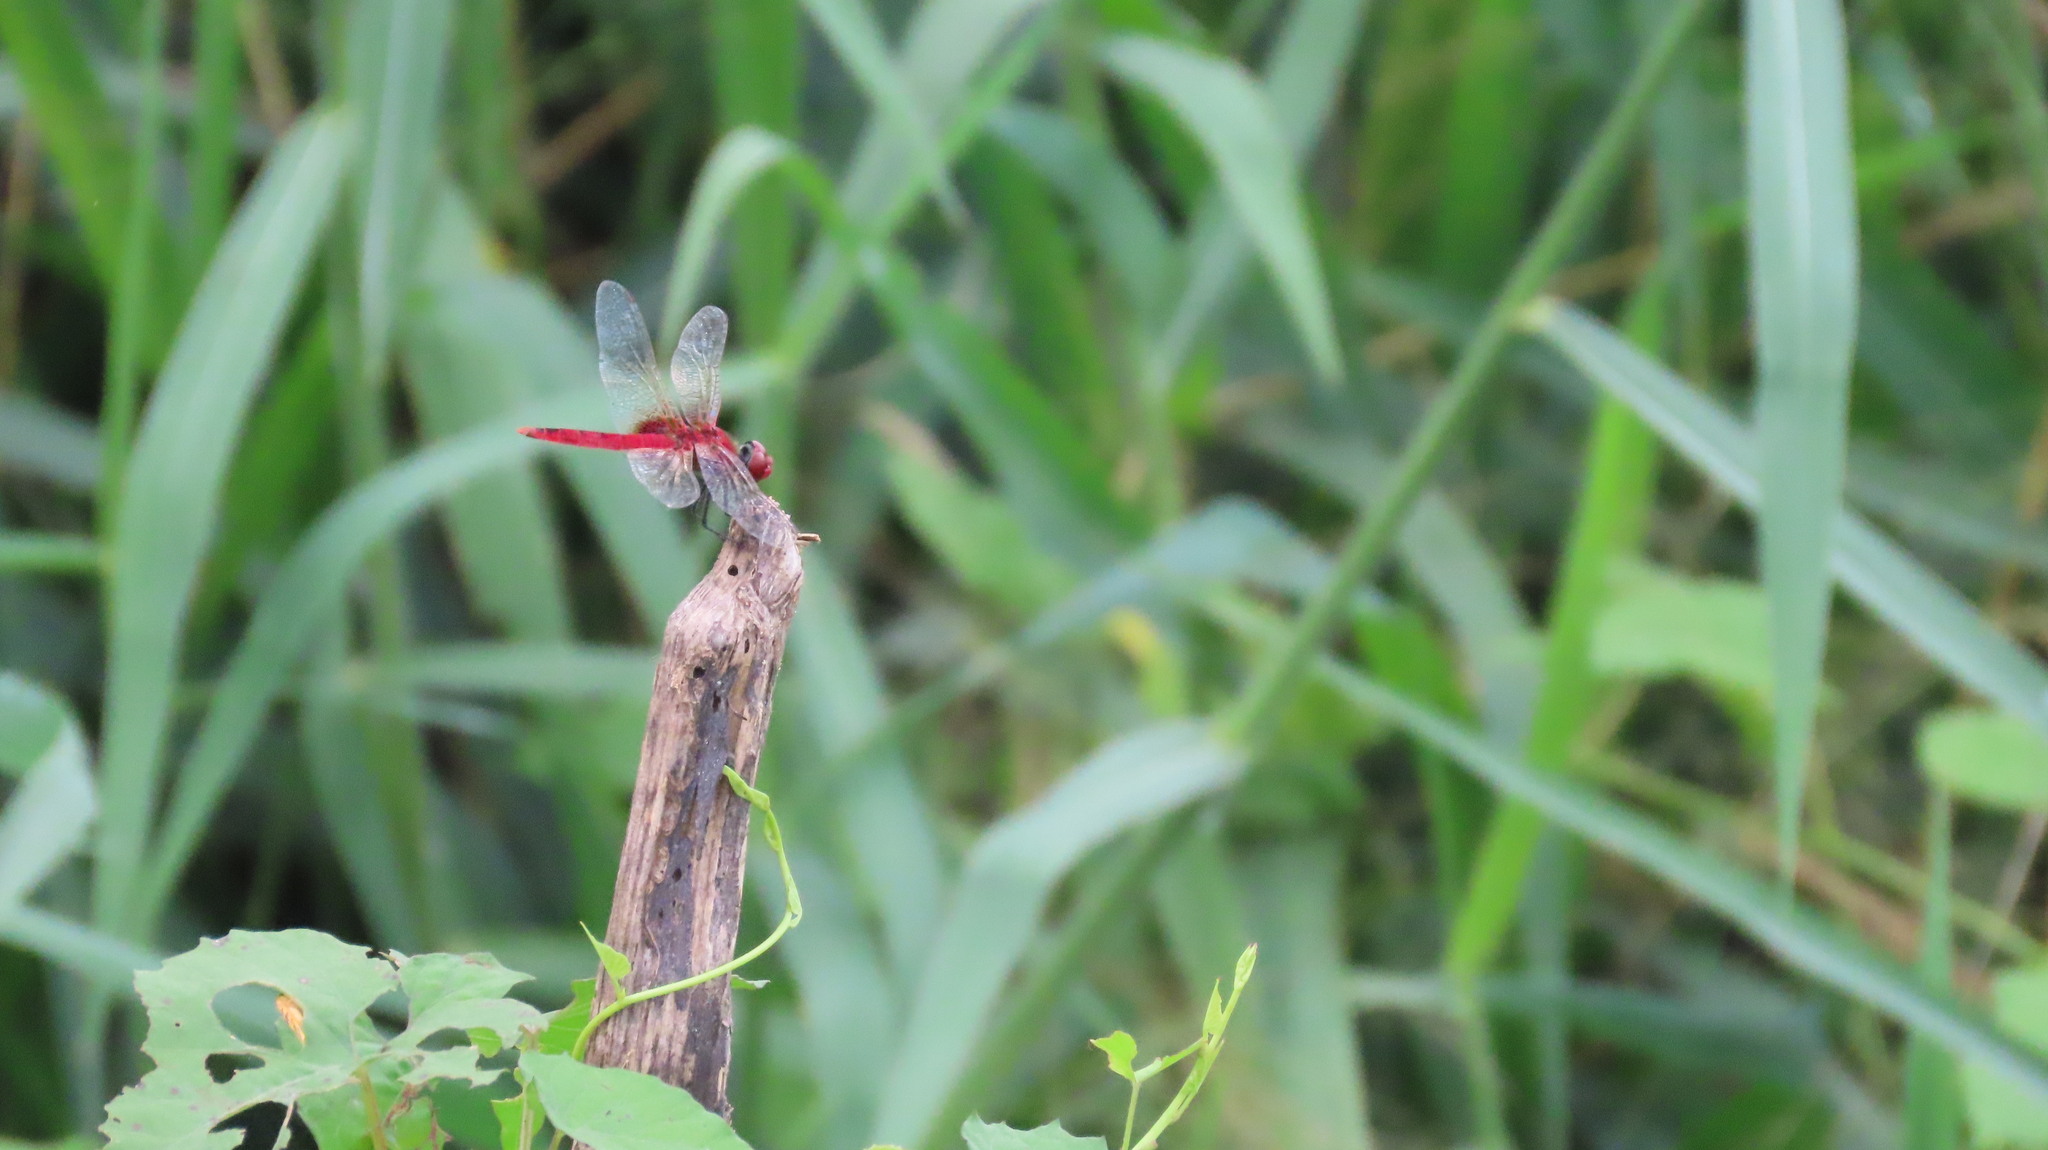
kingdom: Animalia
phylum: Arthropoda
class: Insecta
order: Odonata
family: Libellulidae
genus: Urothemis
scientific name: Urothemis signata
